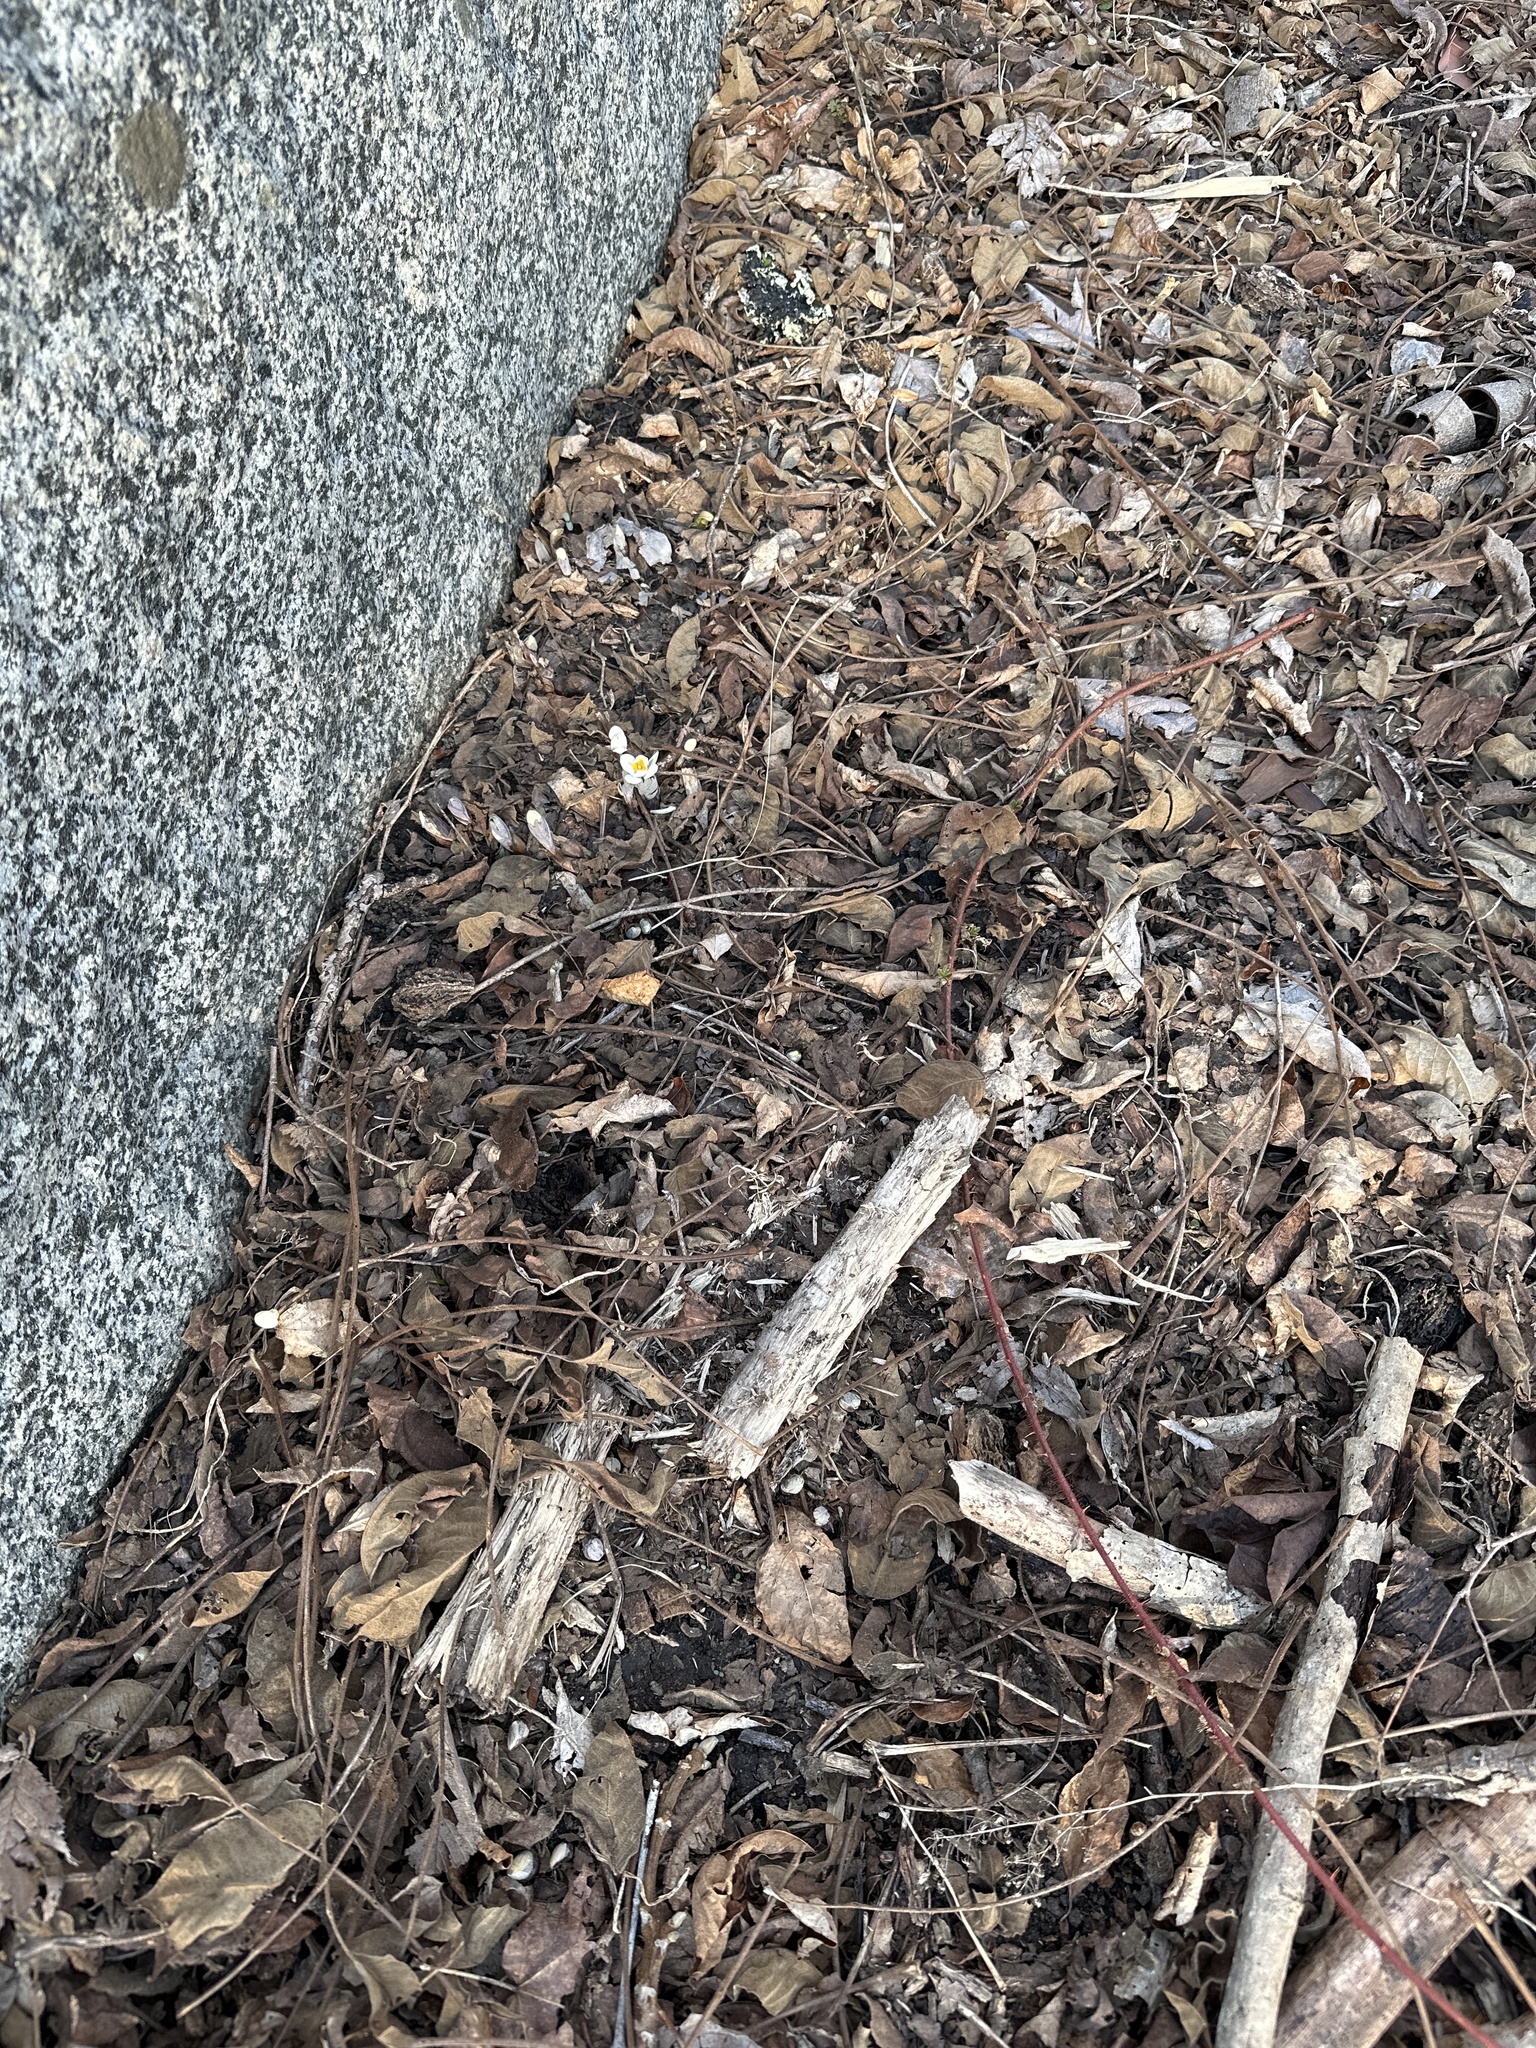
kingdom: Plantae
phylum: Tracheophyta
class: Magnoliopsida
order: Ranunculales
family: Papaveraceae
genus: Sanguinaria
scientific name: Sanguinaria canadensis
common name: Bloodroot
